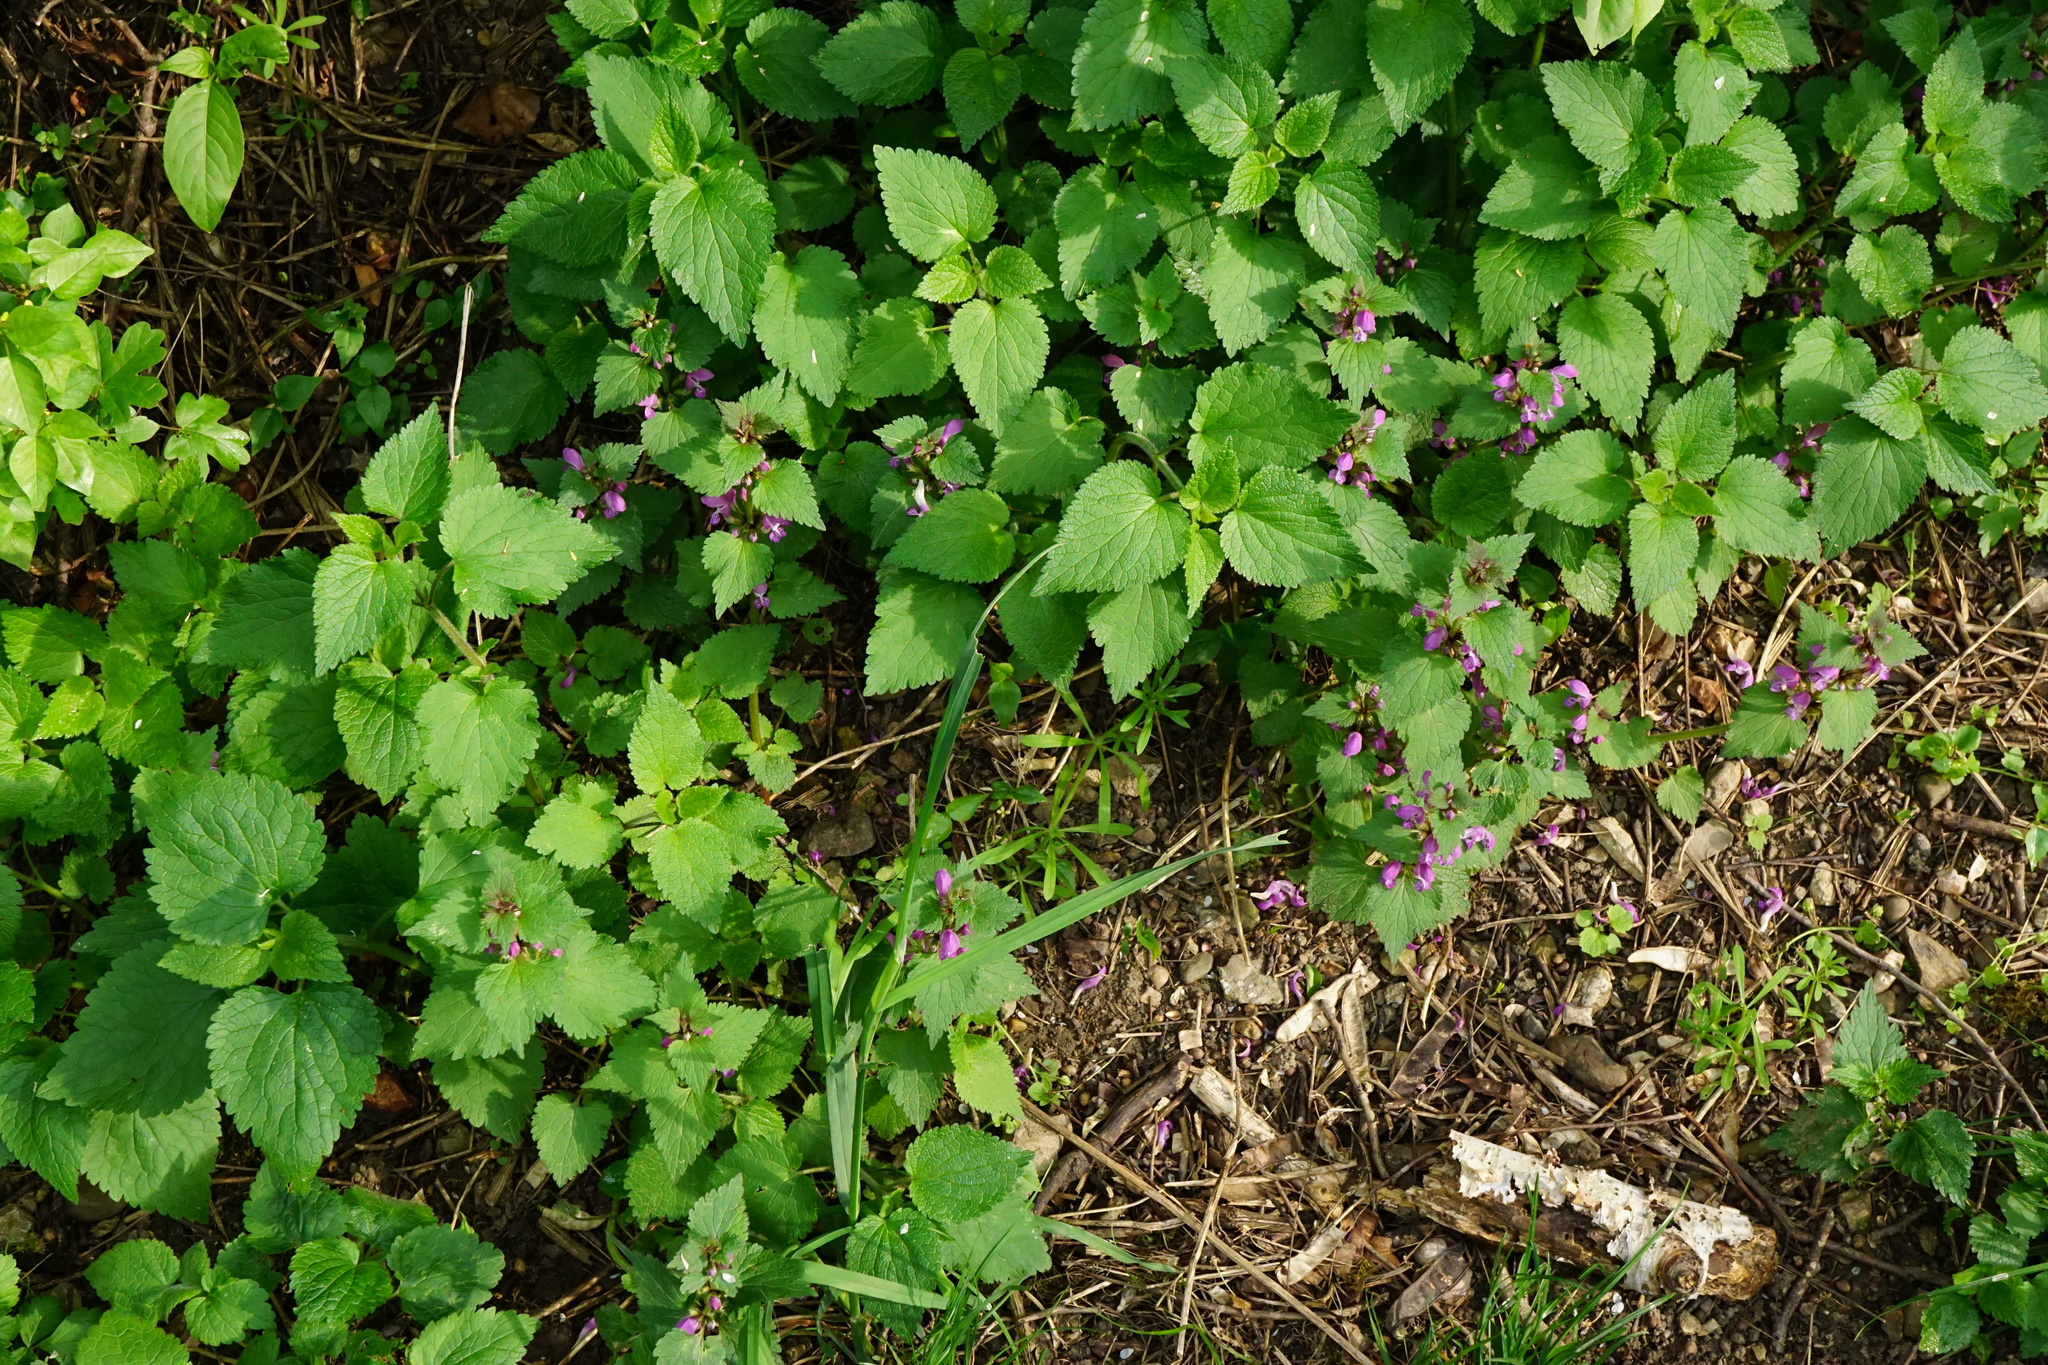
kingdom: Plantae
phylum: Tracheophyta
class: Magnoliopsida
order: Lamiales
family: Lamiaceae
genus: Lamium
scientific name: Lamium maculatum
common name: Spotted dead-nettle
